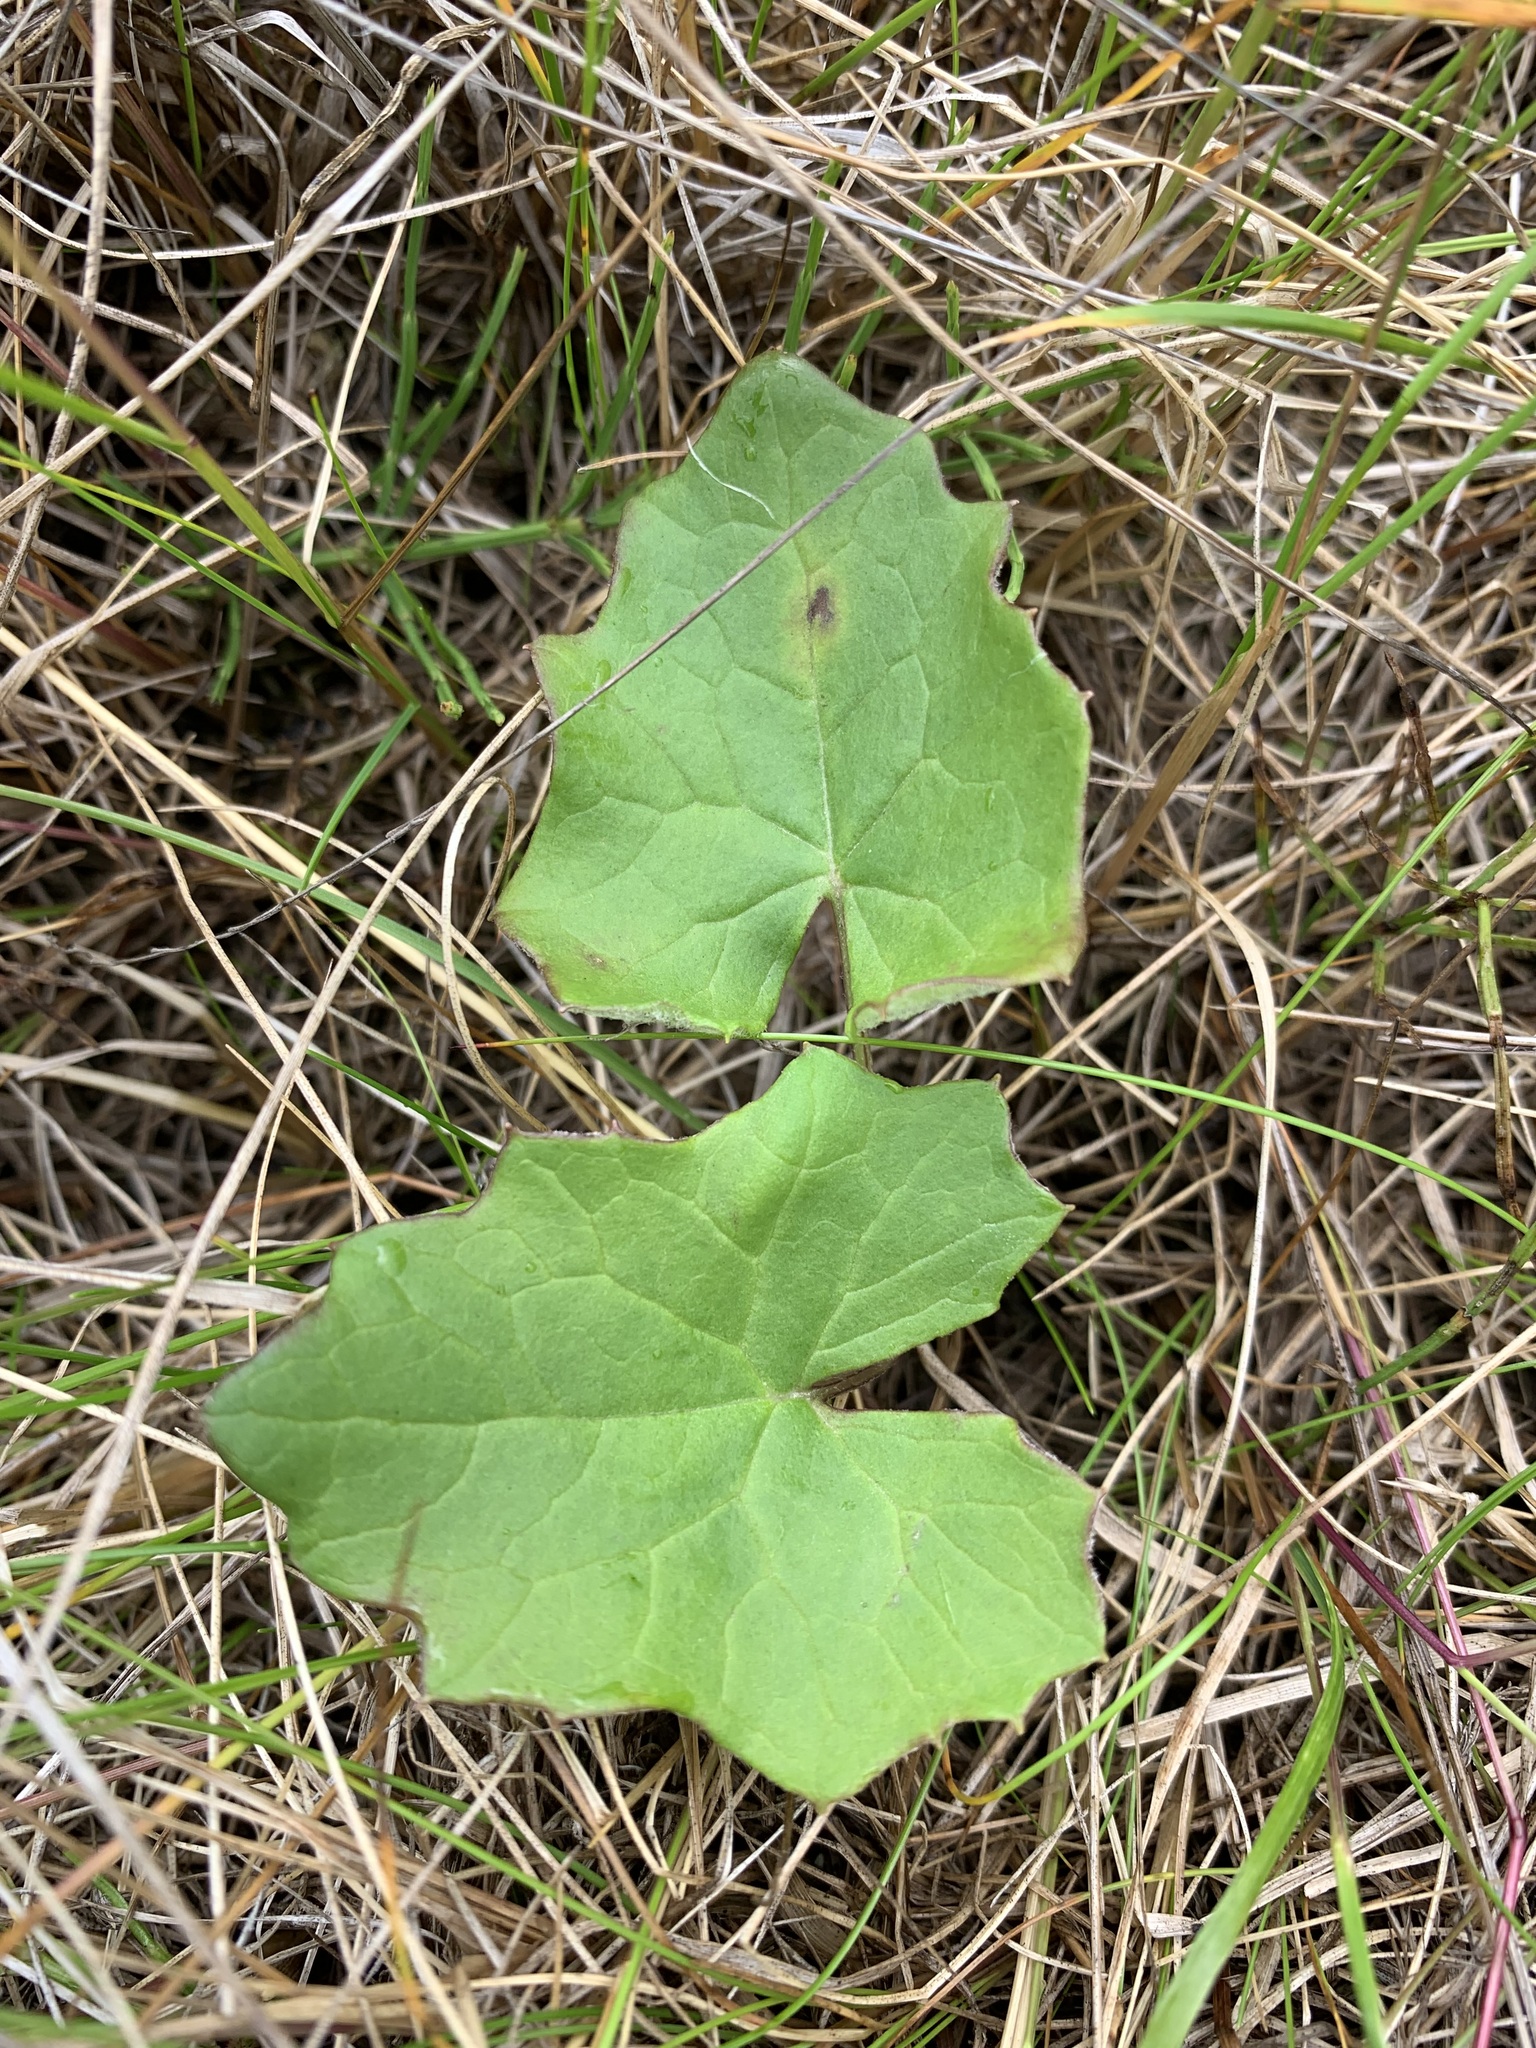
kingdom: Plantae
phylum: Tracheophyta
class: Magnoliopsida
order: Asterales
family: Asteraceae
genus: Petasites
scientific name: Petasites frigidus
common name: Arctic butterbur
